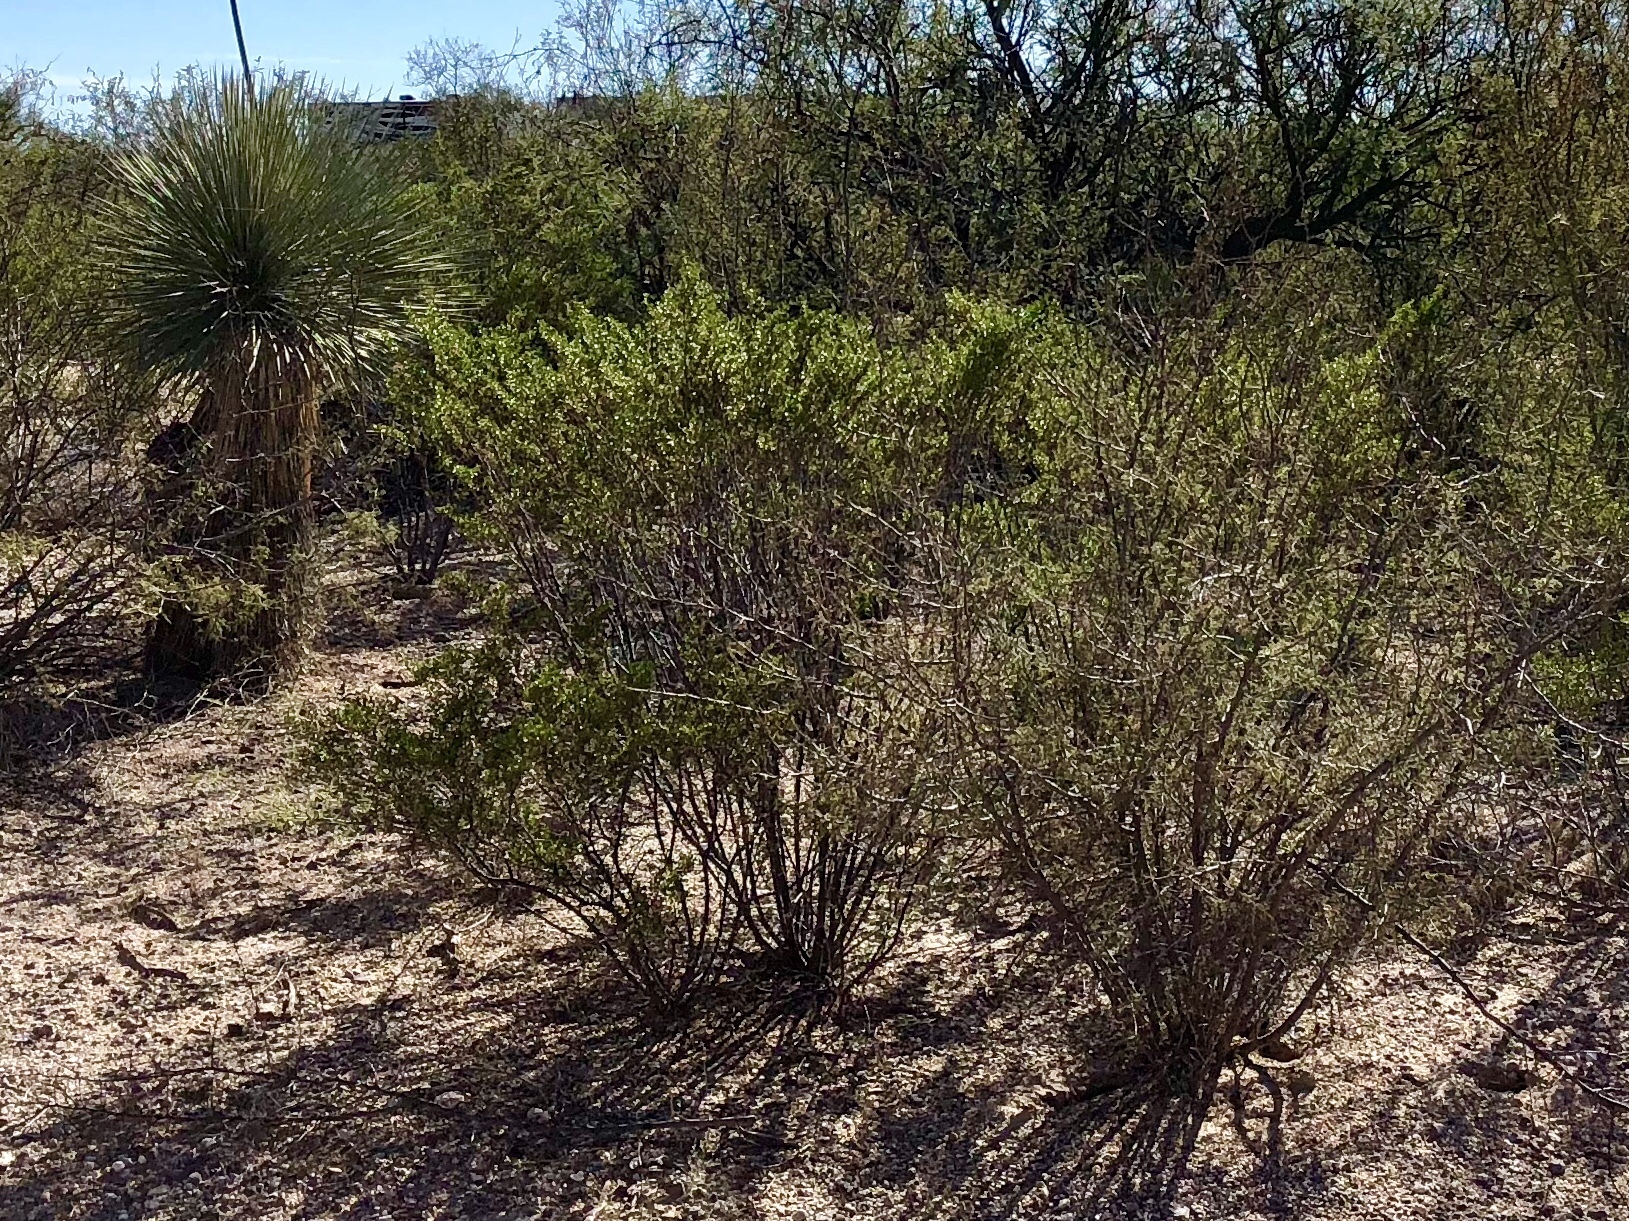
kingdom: Plantae
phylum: Tracheophyta
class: Magnoliopsida
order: Zygophyllales
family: Zygophyllaceae
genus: Larrea
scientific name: Larrea tridentata
